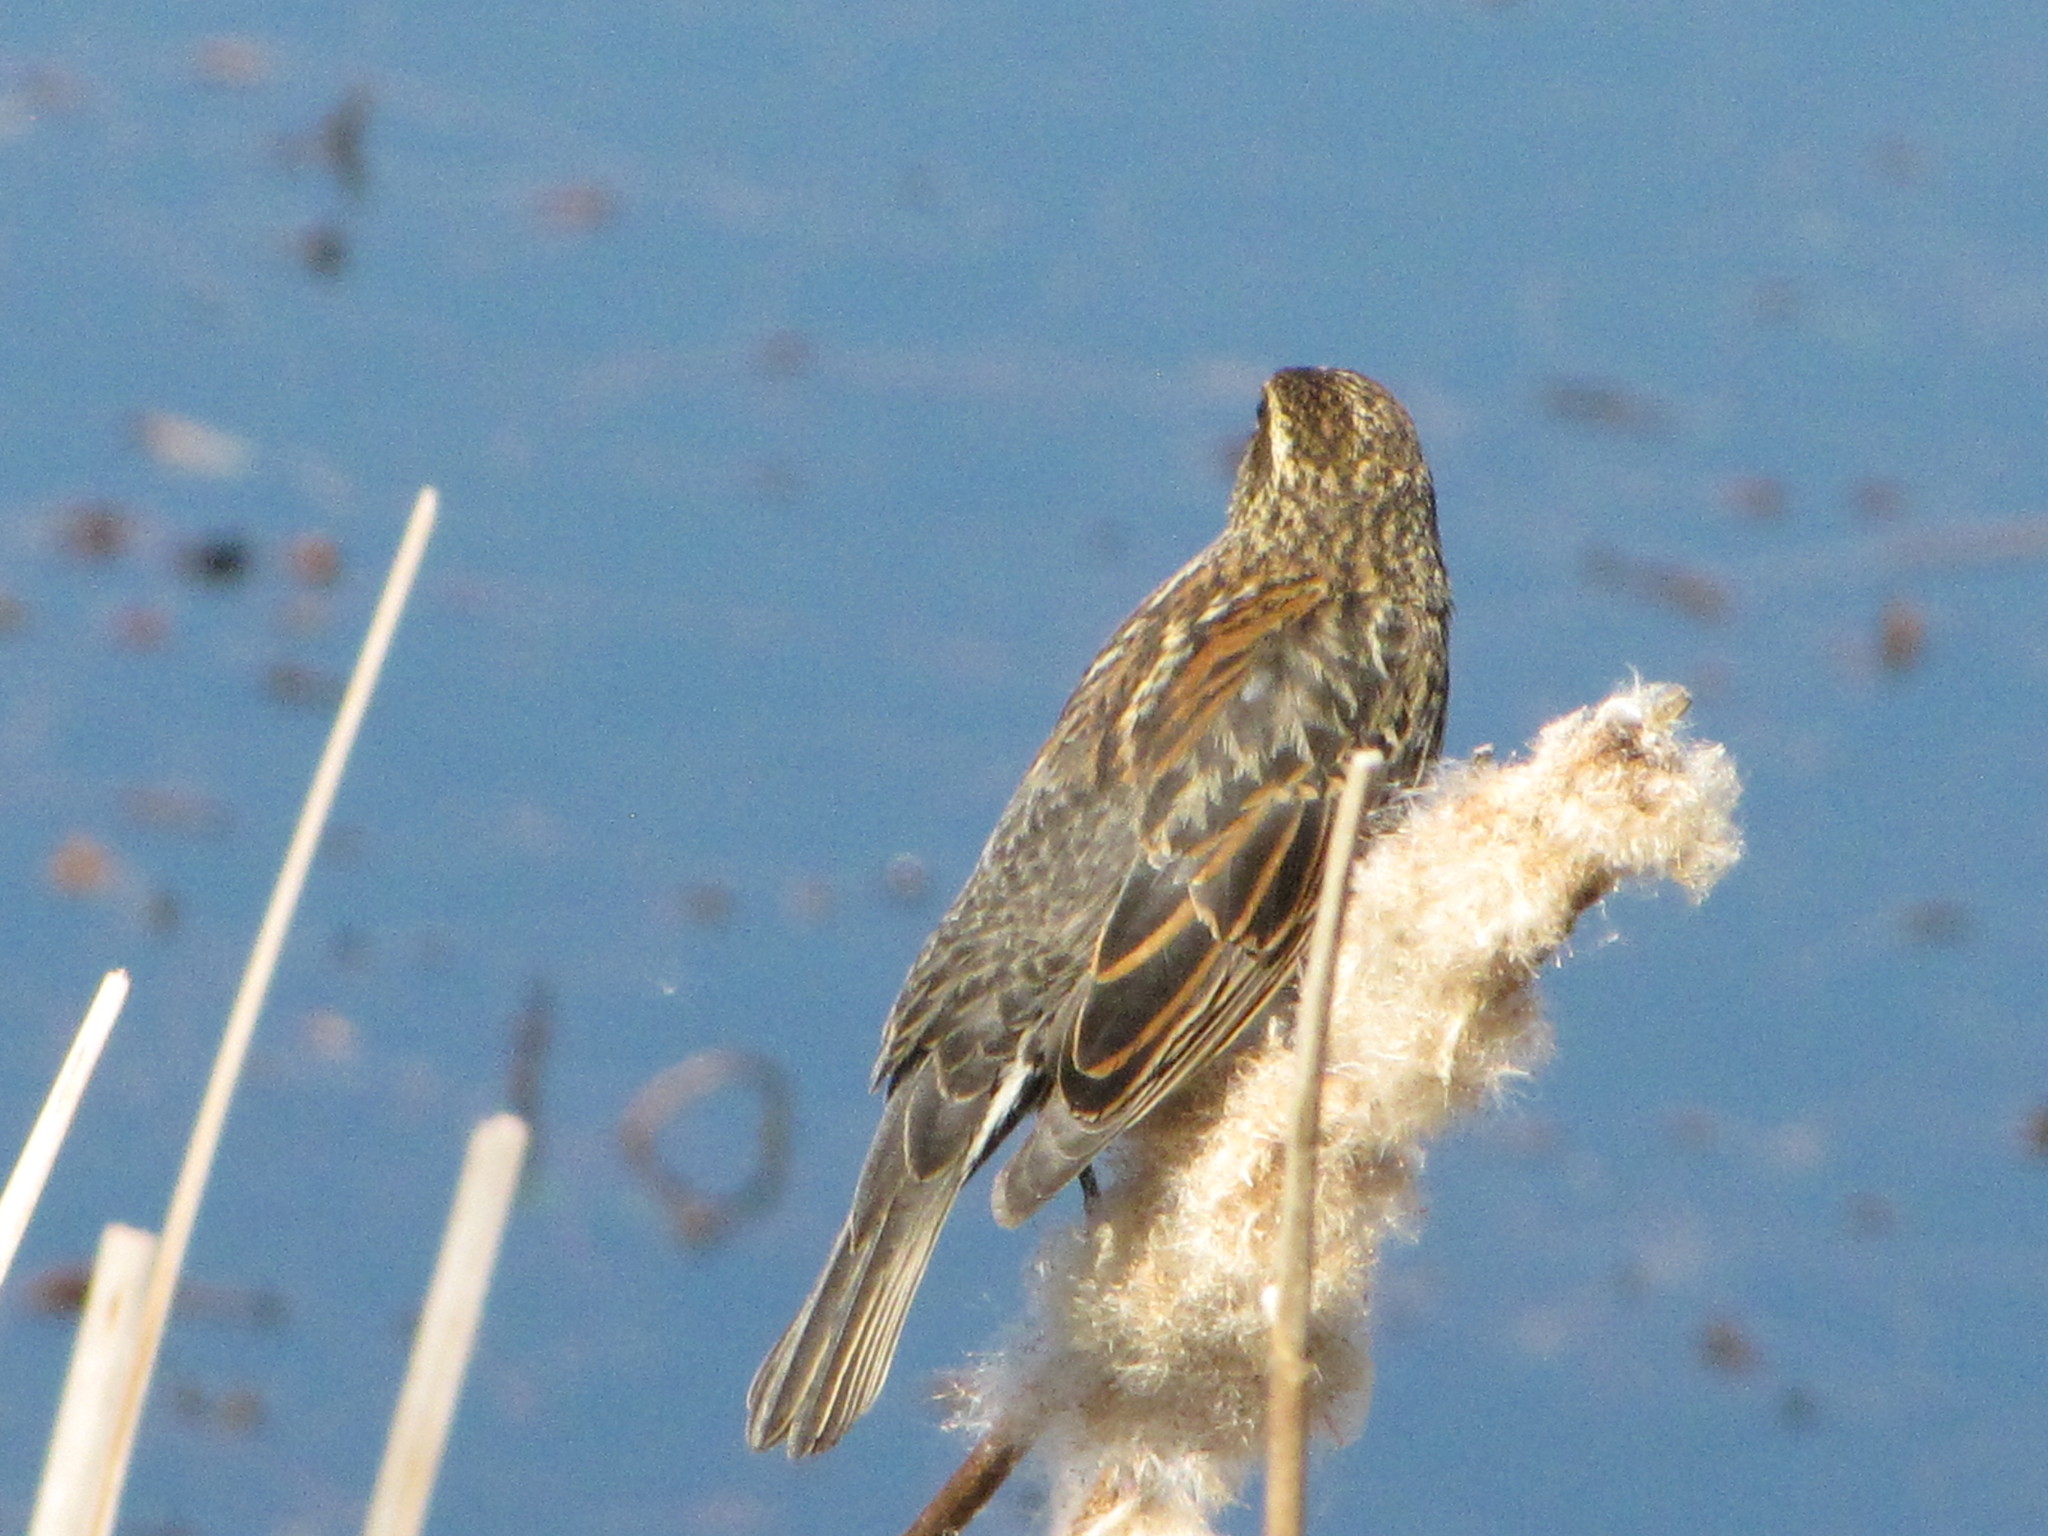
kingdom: Animalia
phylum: Chordata
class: Aves
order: Passeriformes
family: Icteridae
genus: Agelaius
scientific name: Agelaius phoeniceus
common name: Red-winged blackbird
